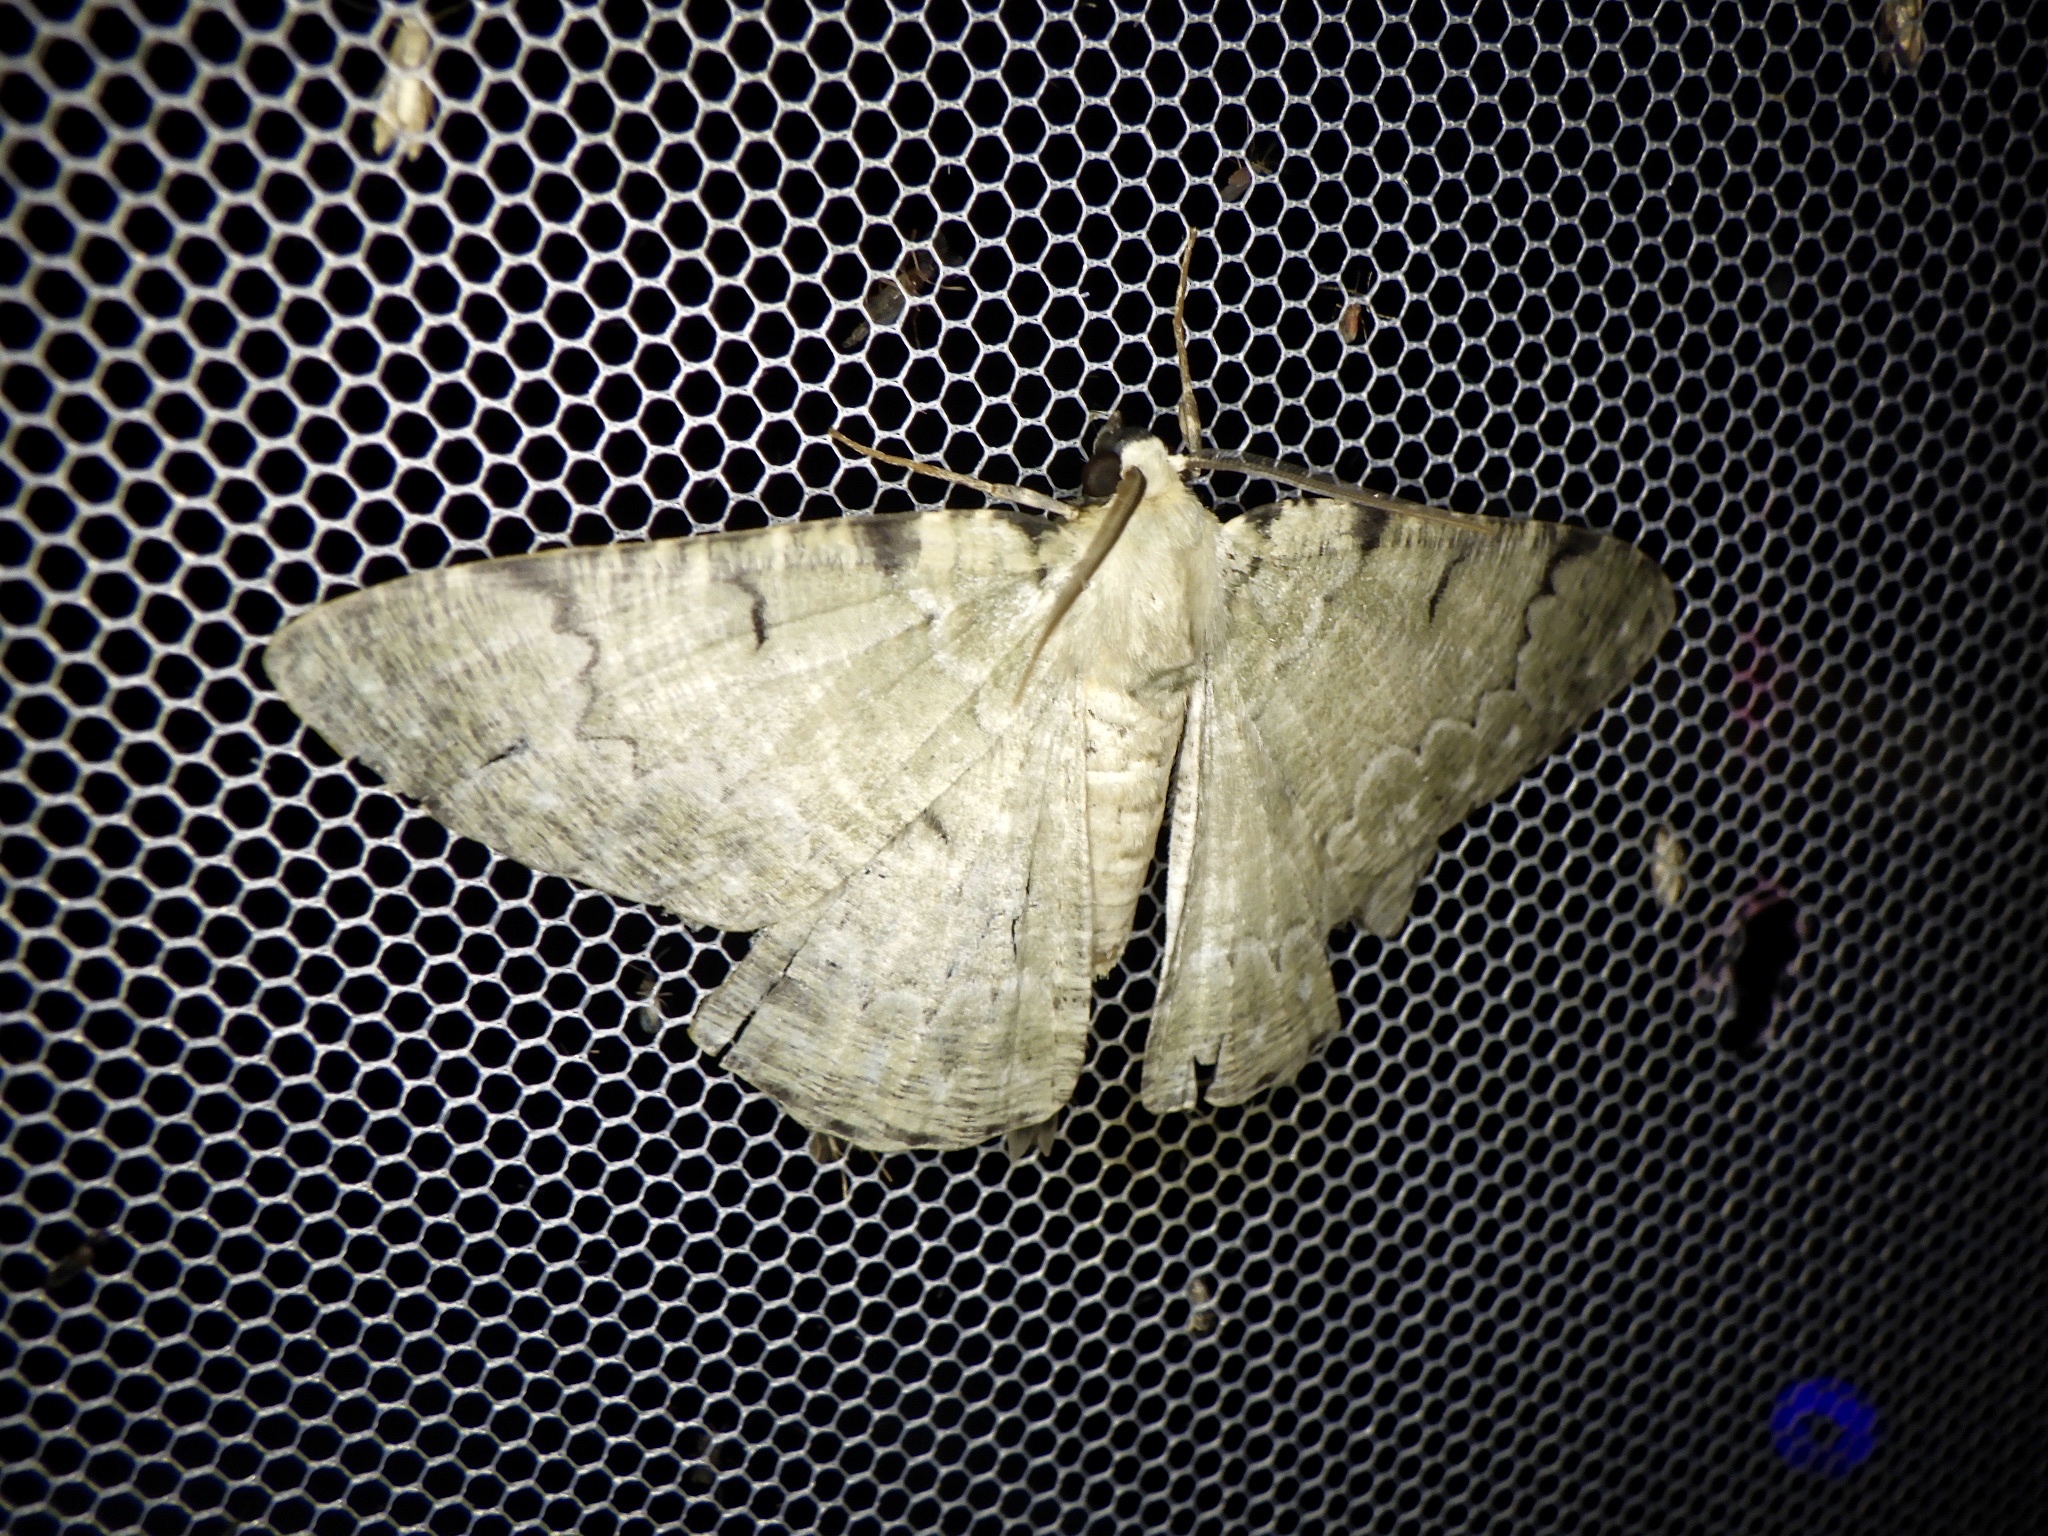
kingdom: Animalia
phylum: Arthropoda
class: Insecta
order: Lepidoptera
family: Geometridae
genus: Pachista
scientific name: Pachista superans
